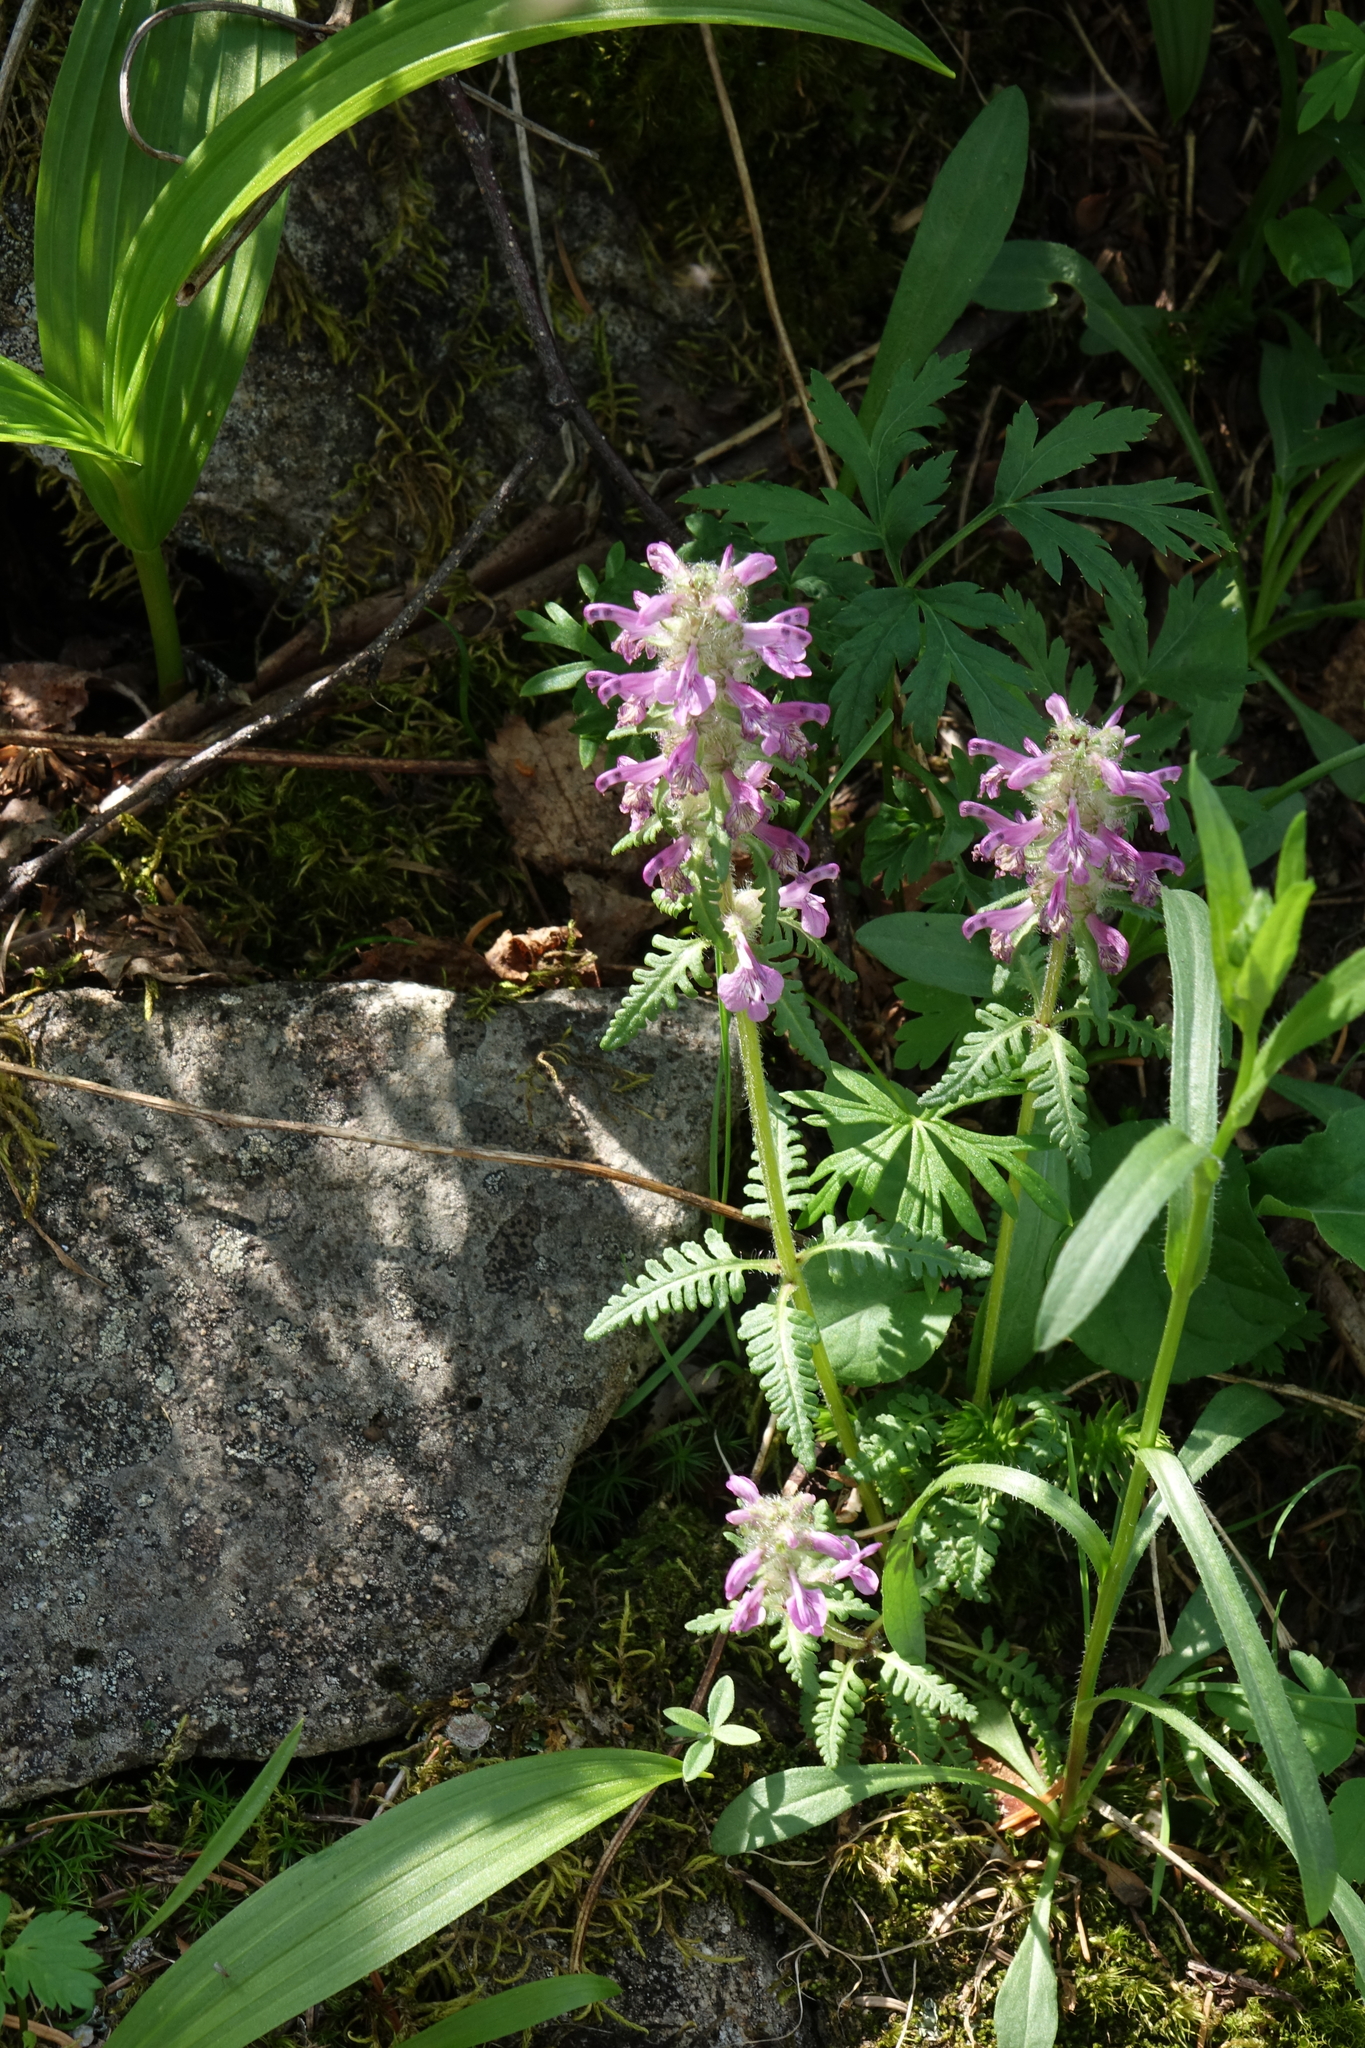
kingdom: Plantae
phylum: Tracheophyta
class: Magnoliopsida
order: Lamiales
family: Orobanchaceae
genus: Pedicularis
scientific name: Pedicularis verticillata
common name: Whorled lousewort
